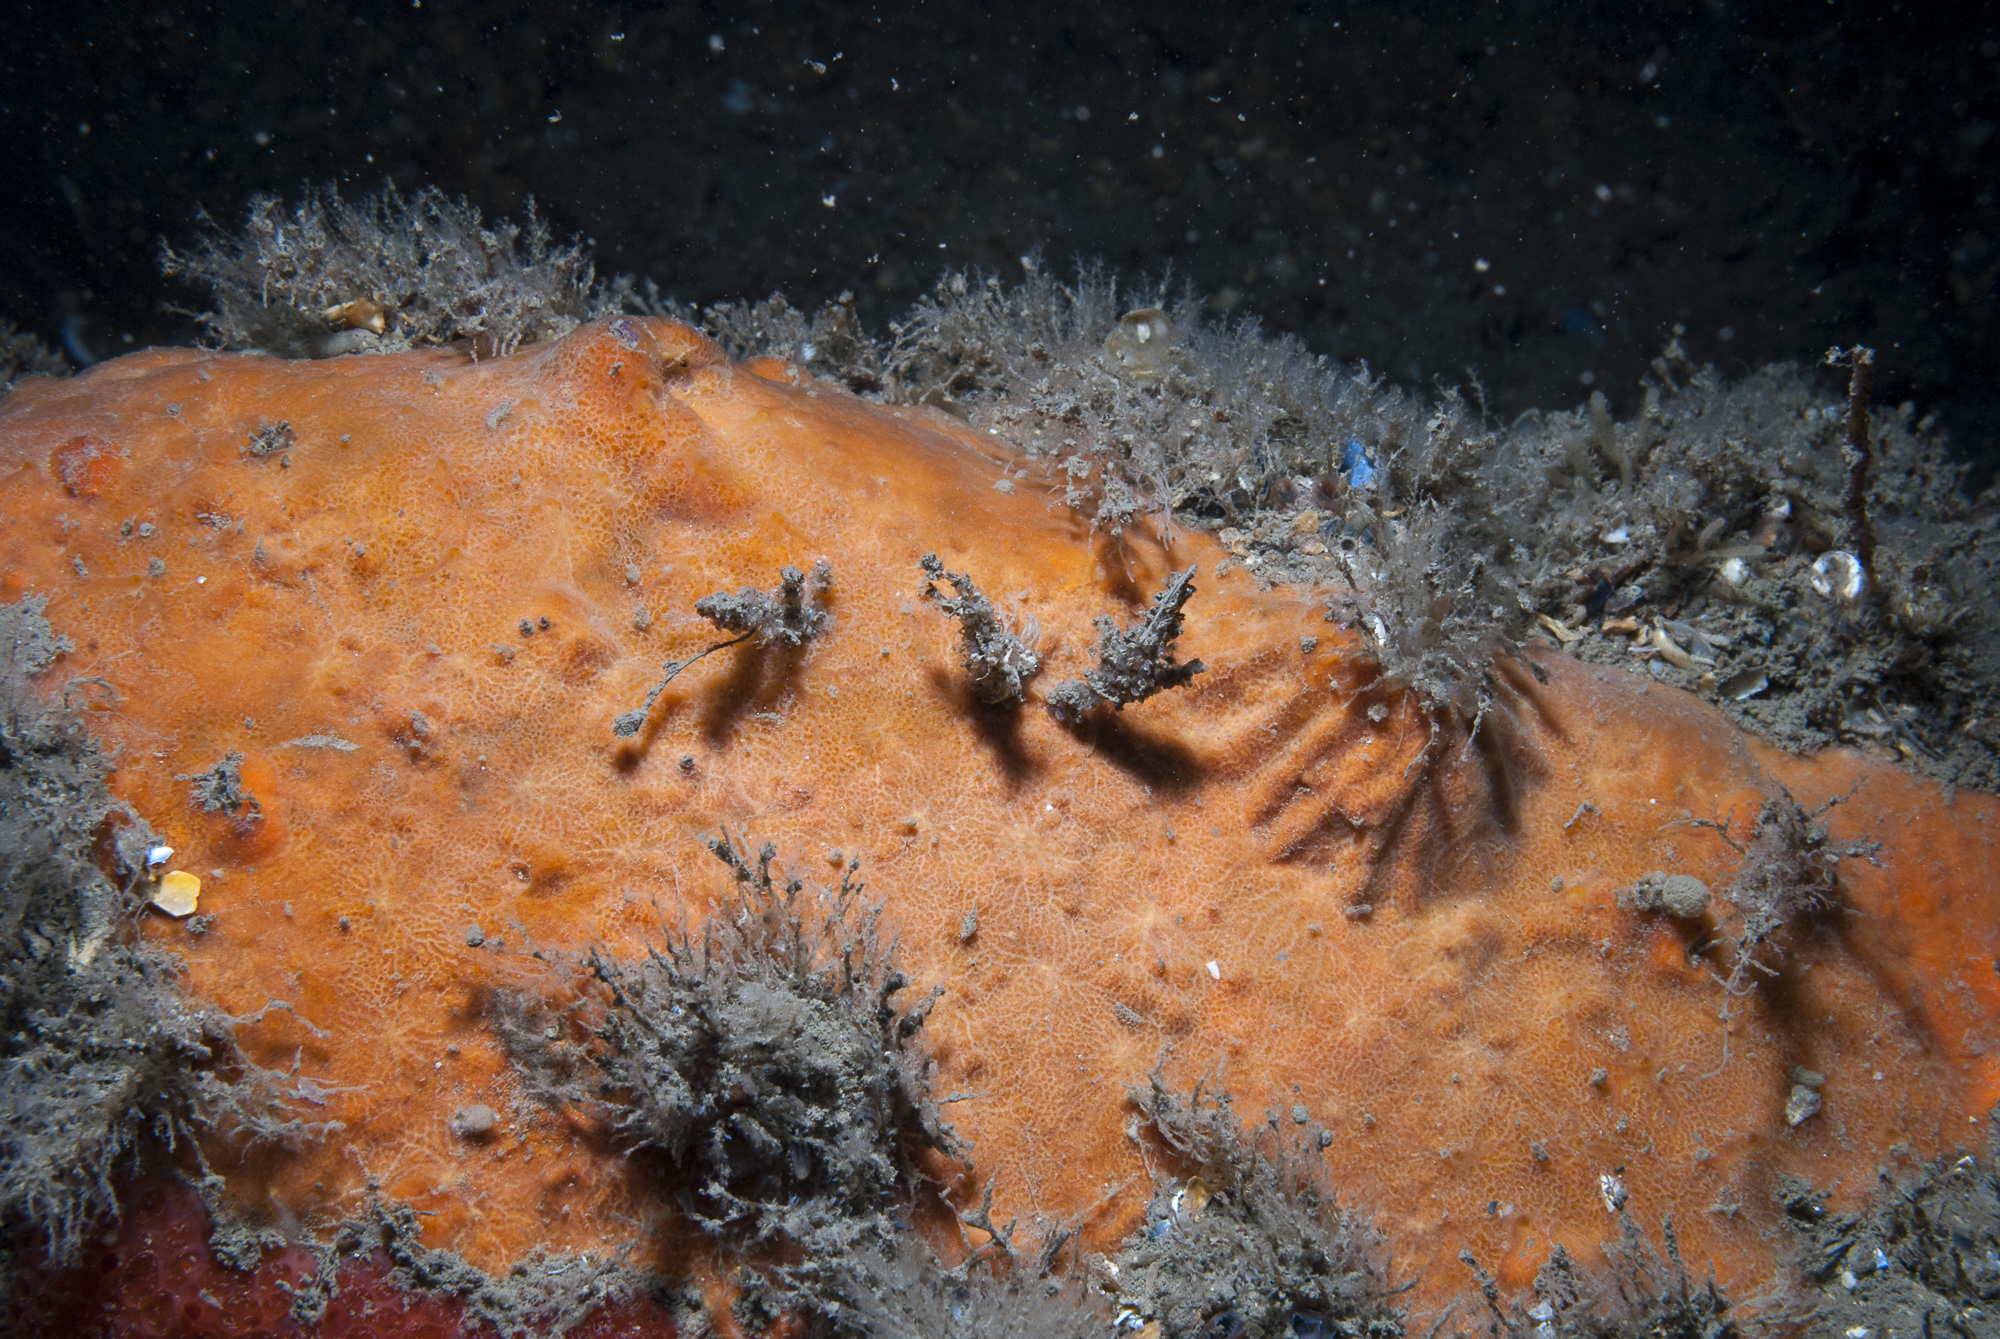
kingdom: Animalia
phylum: Porifera
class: Demospongiae
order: Poecilosclerida
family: Hymedesmiidae
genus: Phorbas
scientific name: Phorbas punctatus
